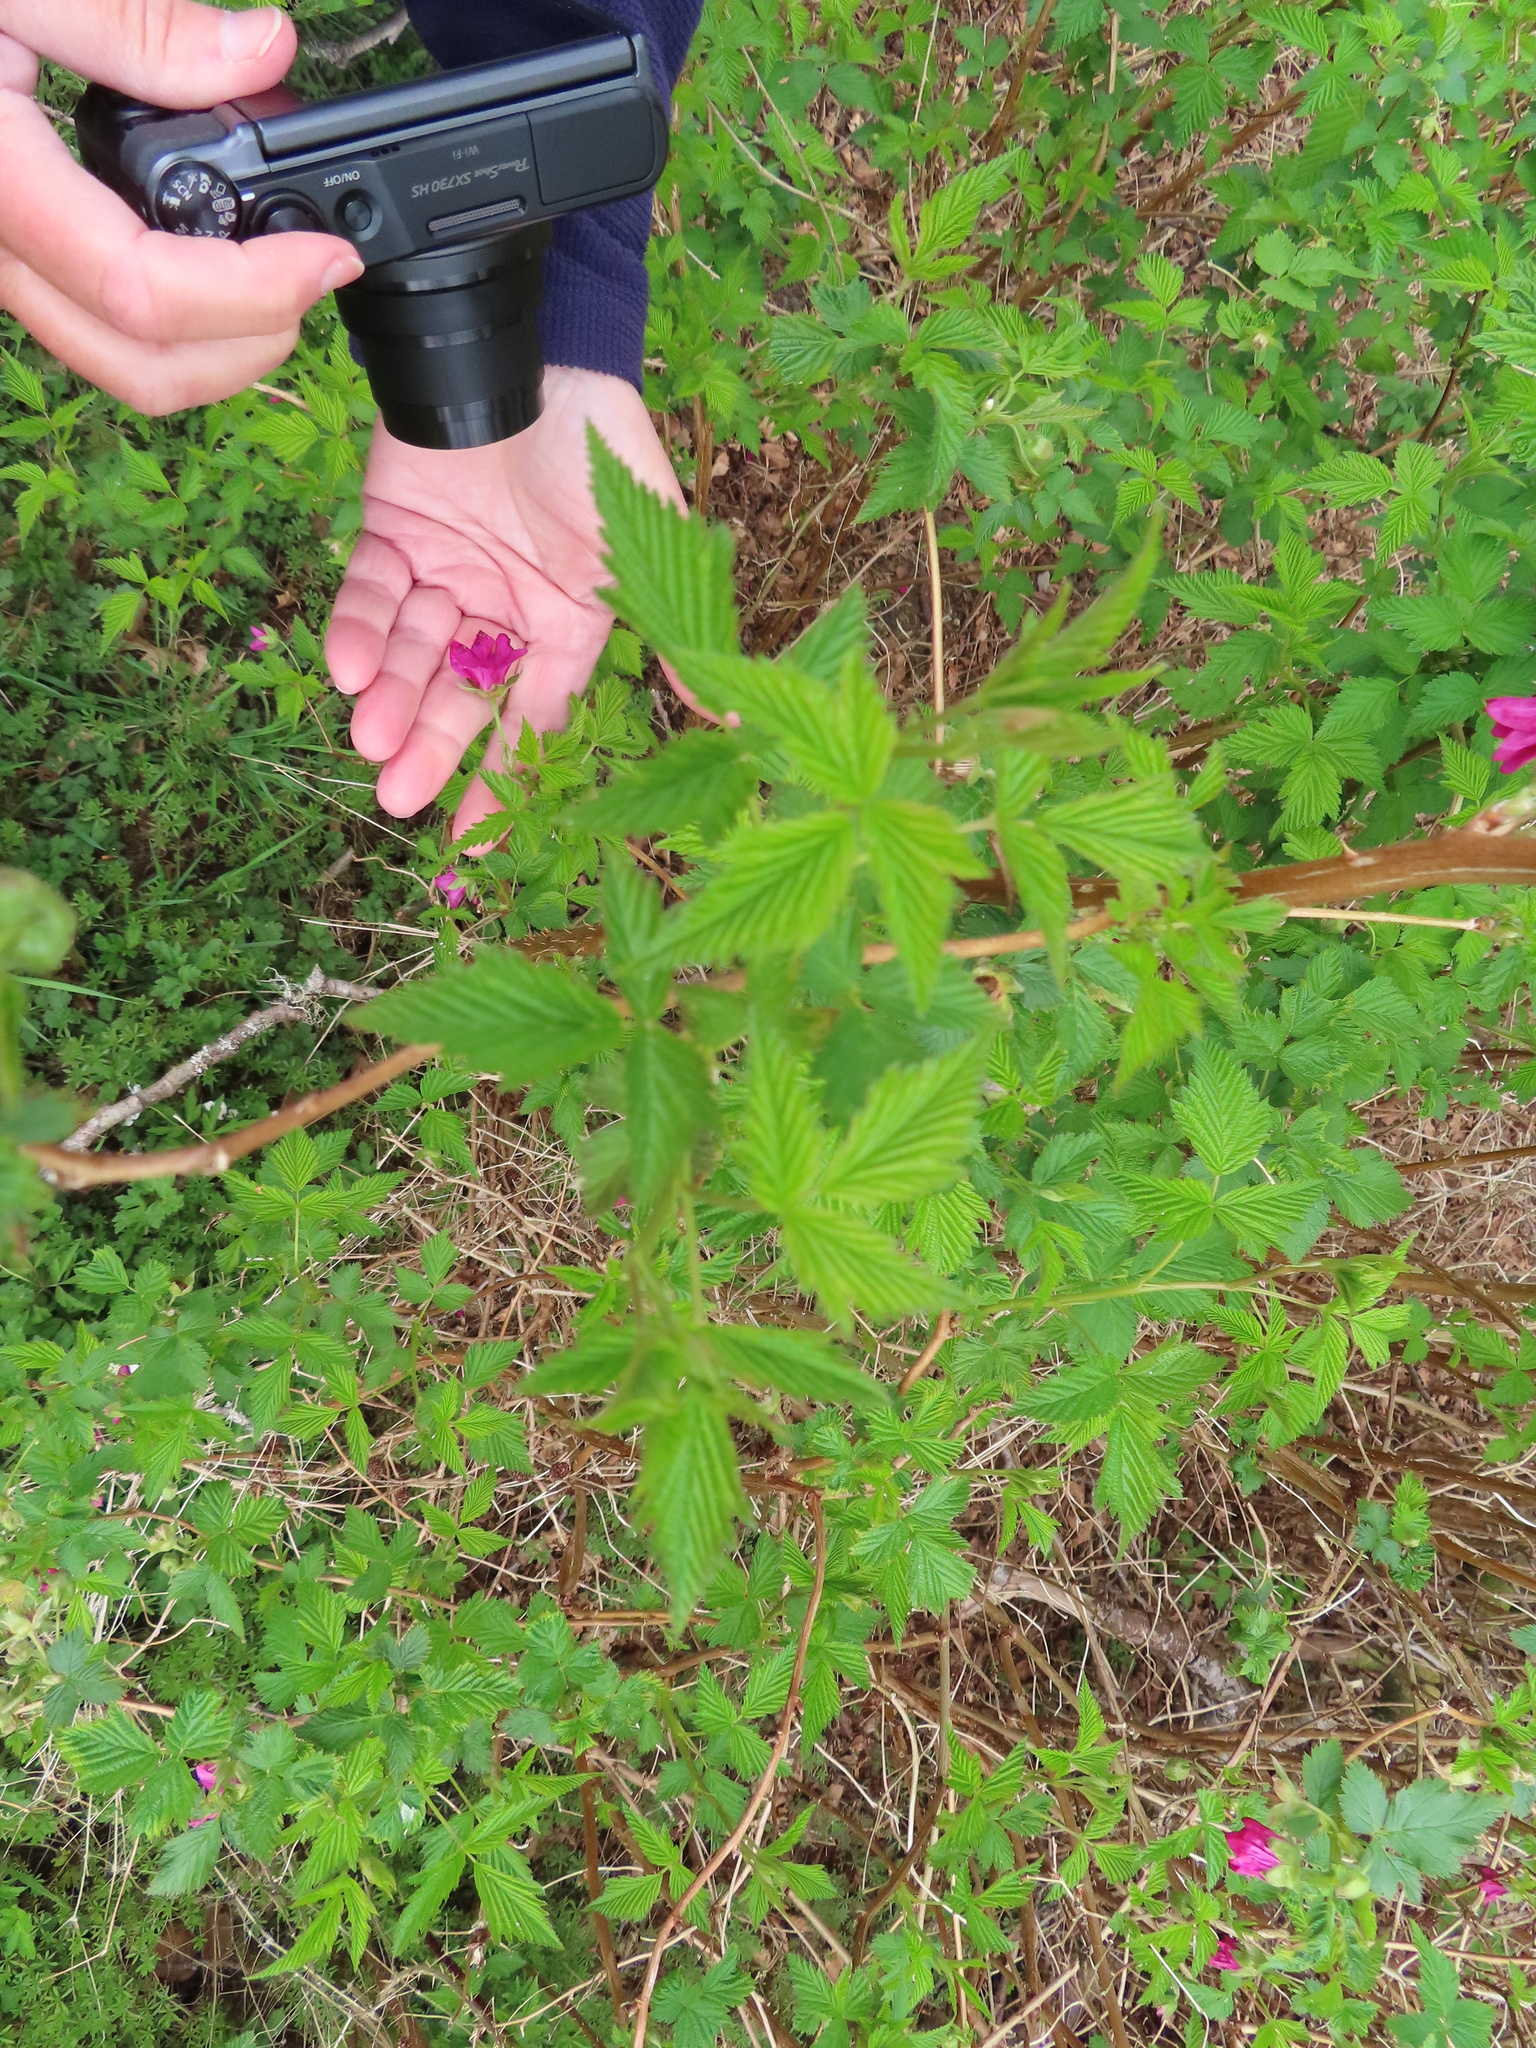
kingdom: Plantae
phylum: Tracheophyta
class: Magnoliopsida
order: Rosales
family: Rosaceae
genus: Rubus
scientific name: Rubus spectabilis
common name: Salmonberry
